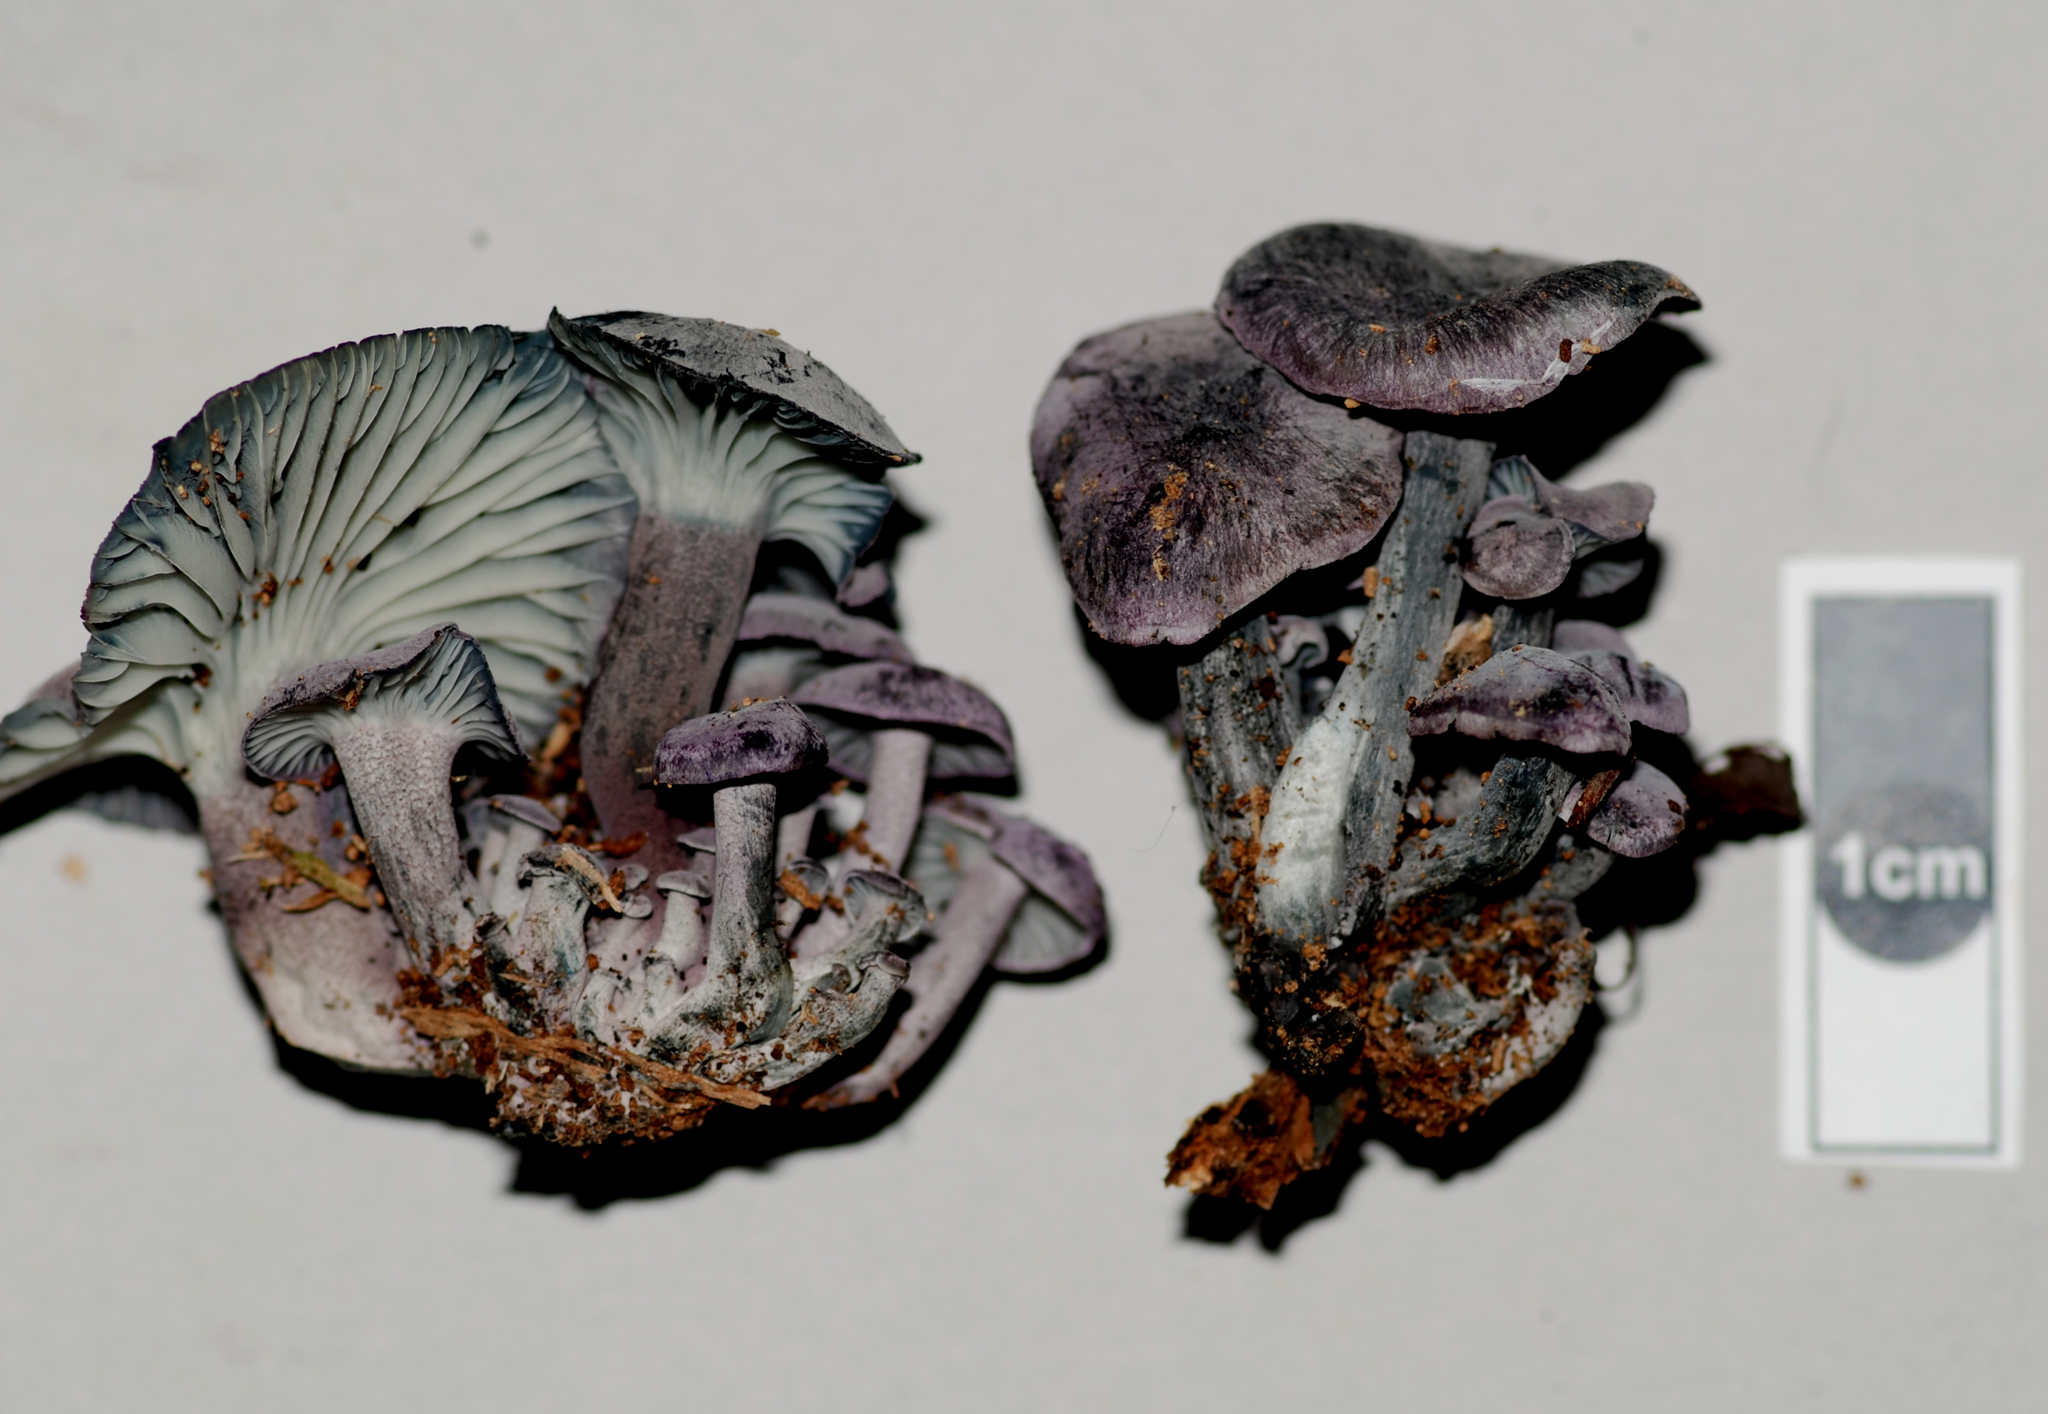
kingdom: Fungi
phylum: Basidiomycota
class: Agaricomycetes
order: Agaricales
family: Marasmiaceae
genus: Gerronema
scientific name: Gerronema waikanaense
